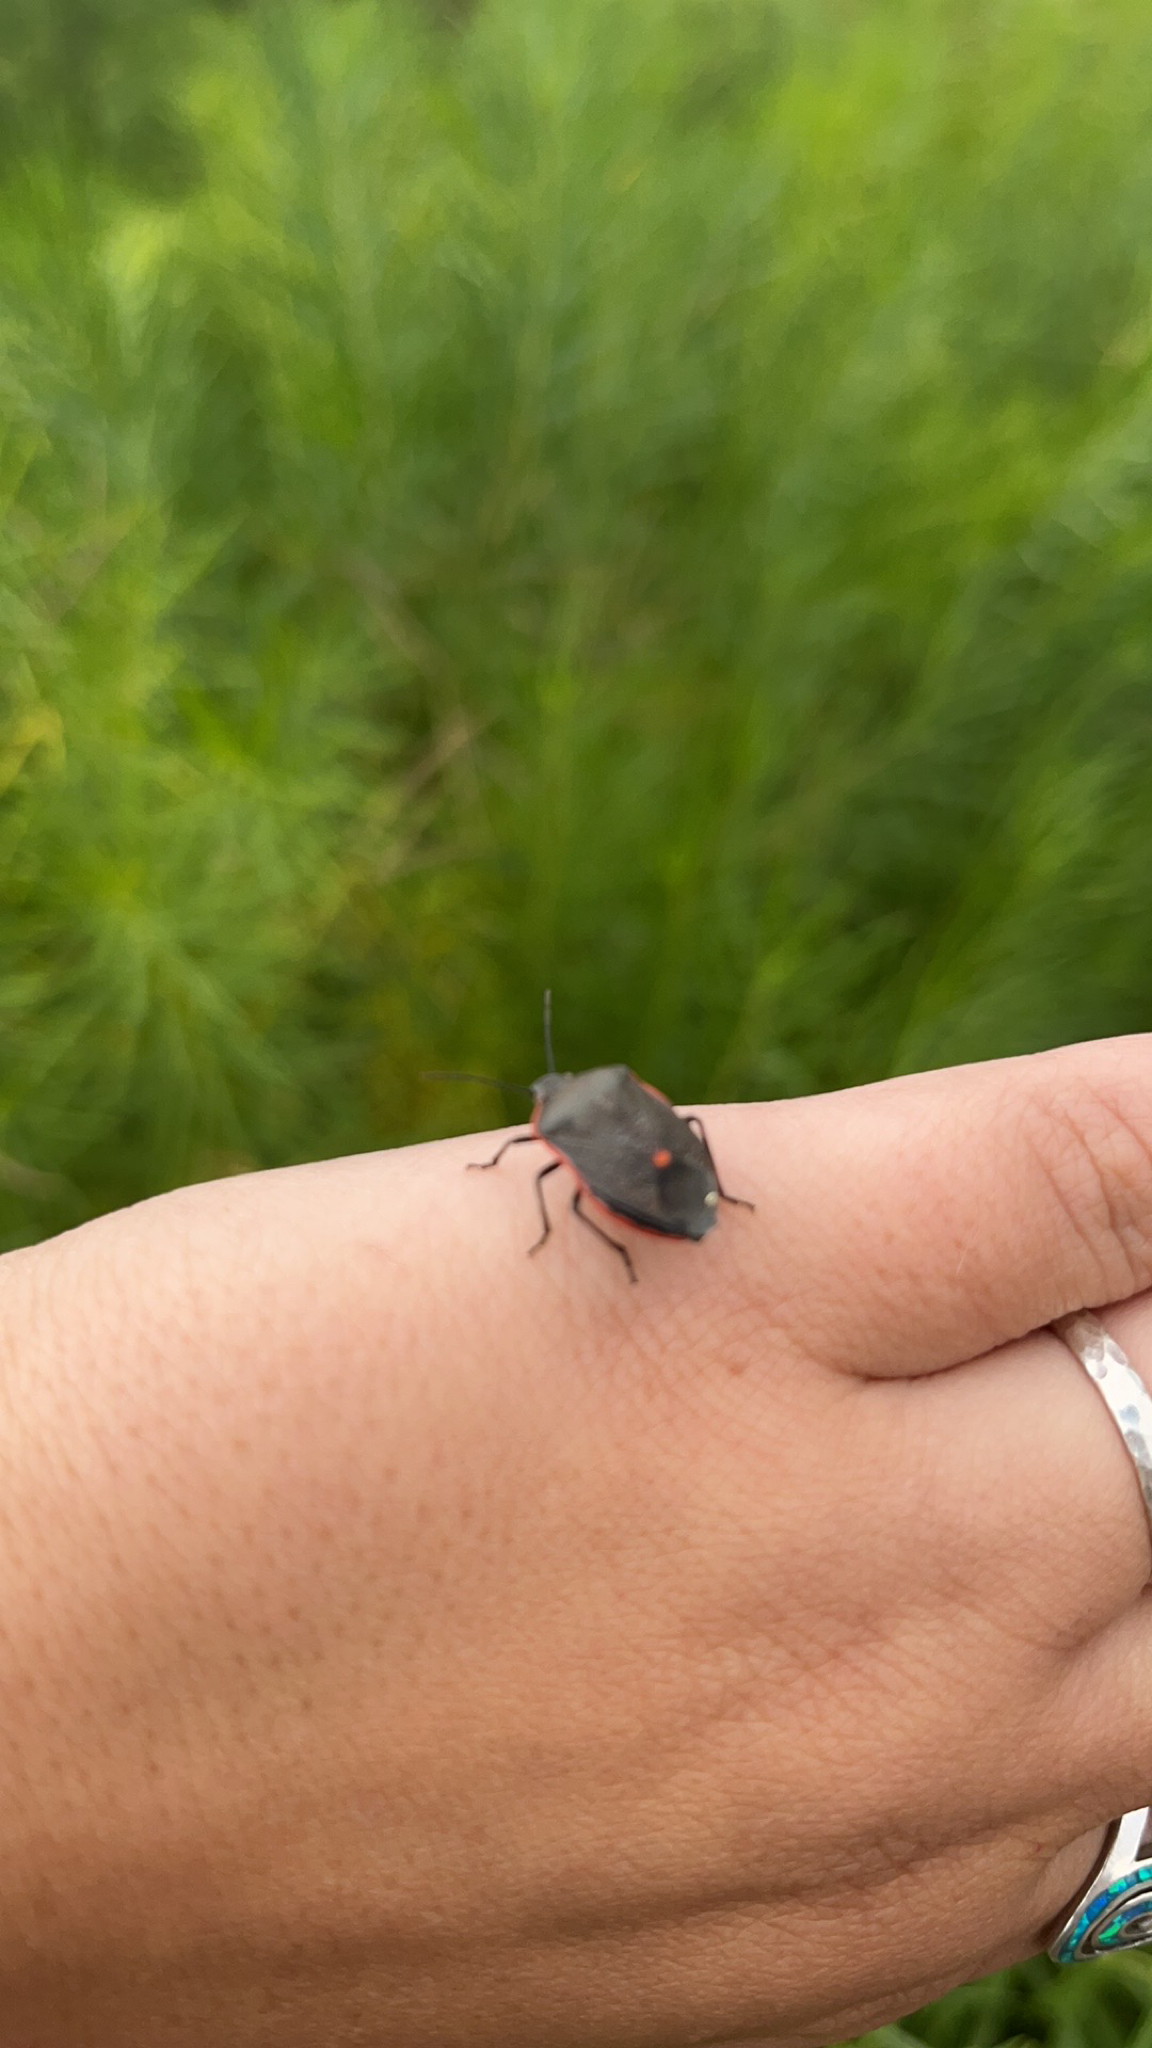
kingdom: Animalia
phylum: Arthropoda
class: Insecta
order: Hemiptera
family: Pentatomidae
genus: Chlorochroa
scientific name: Chlorochroa ligata
